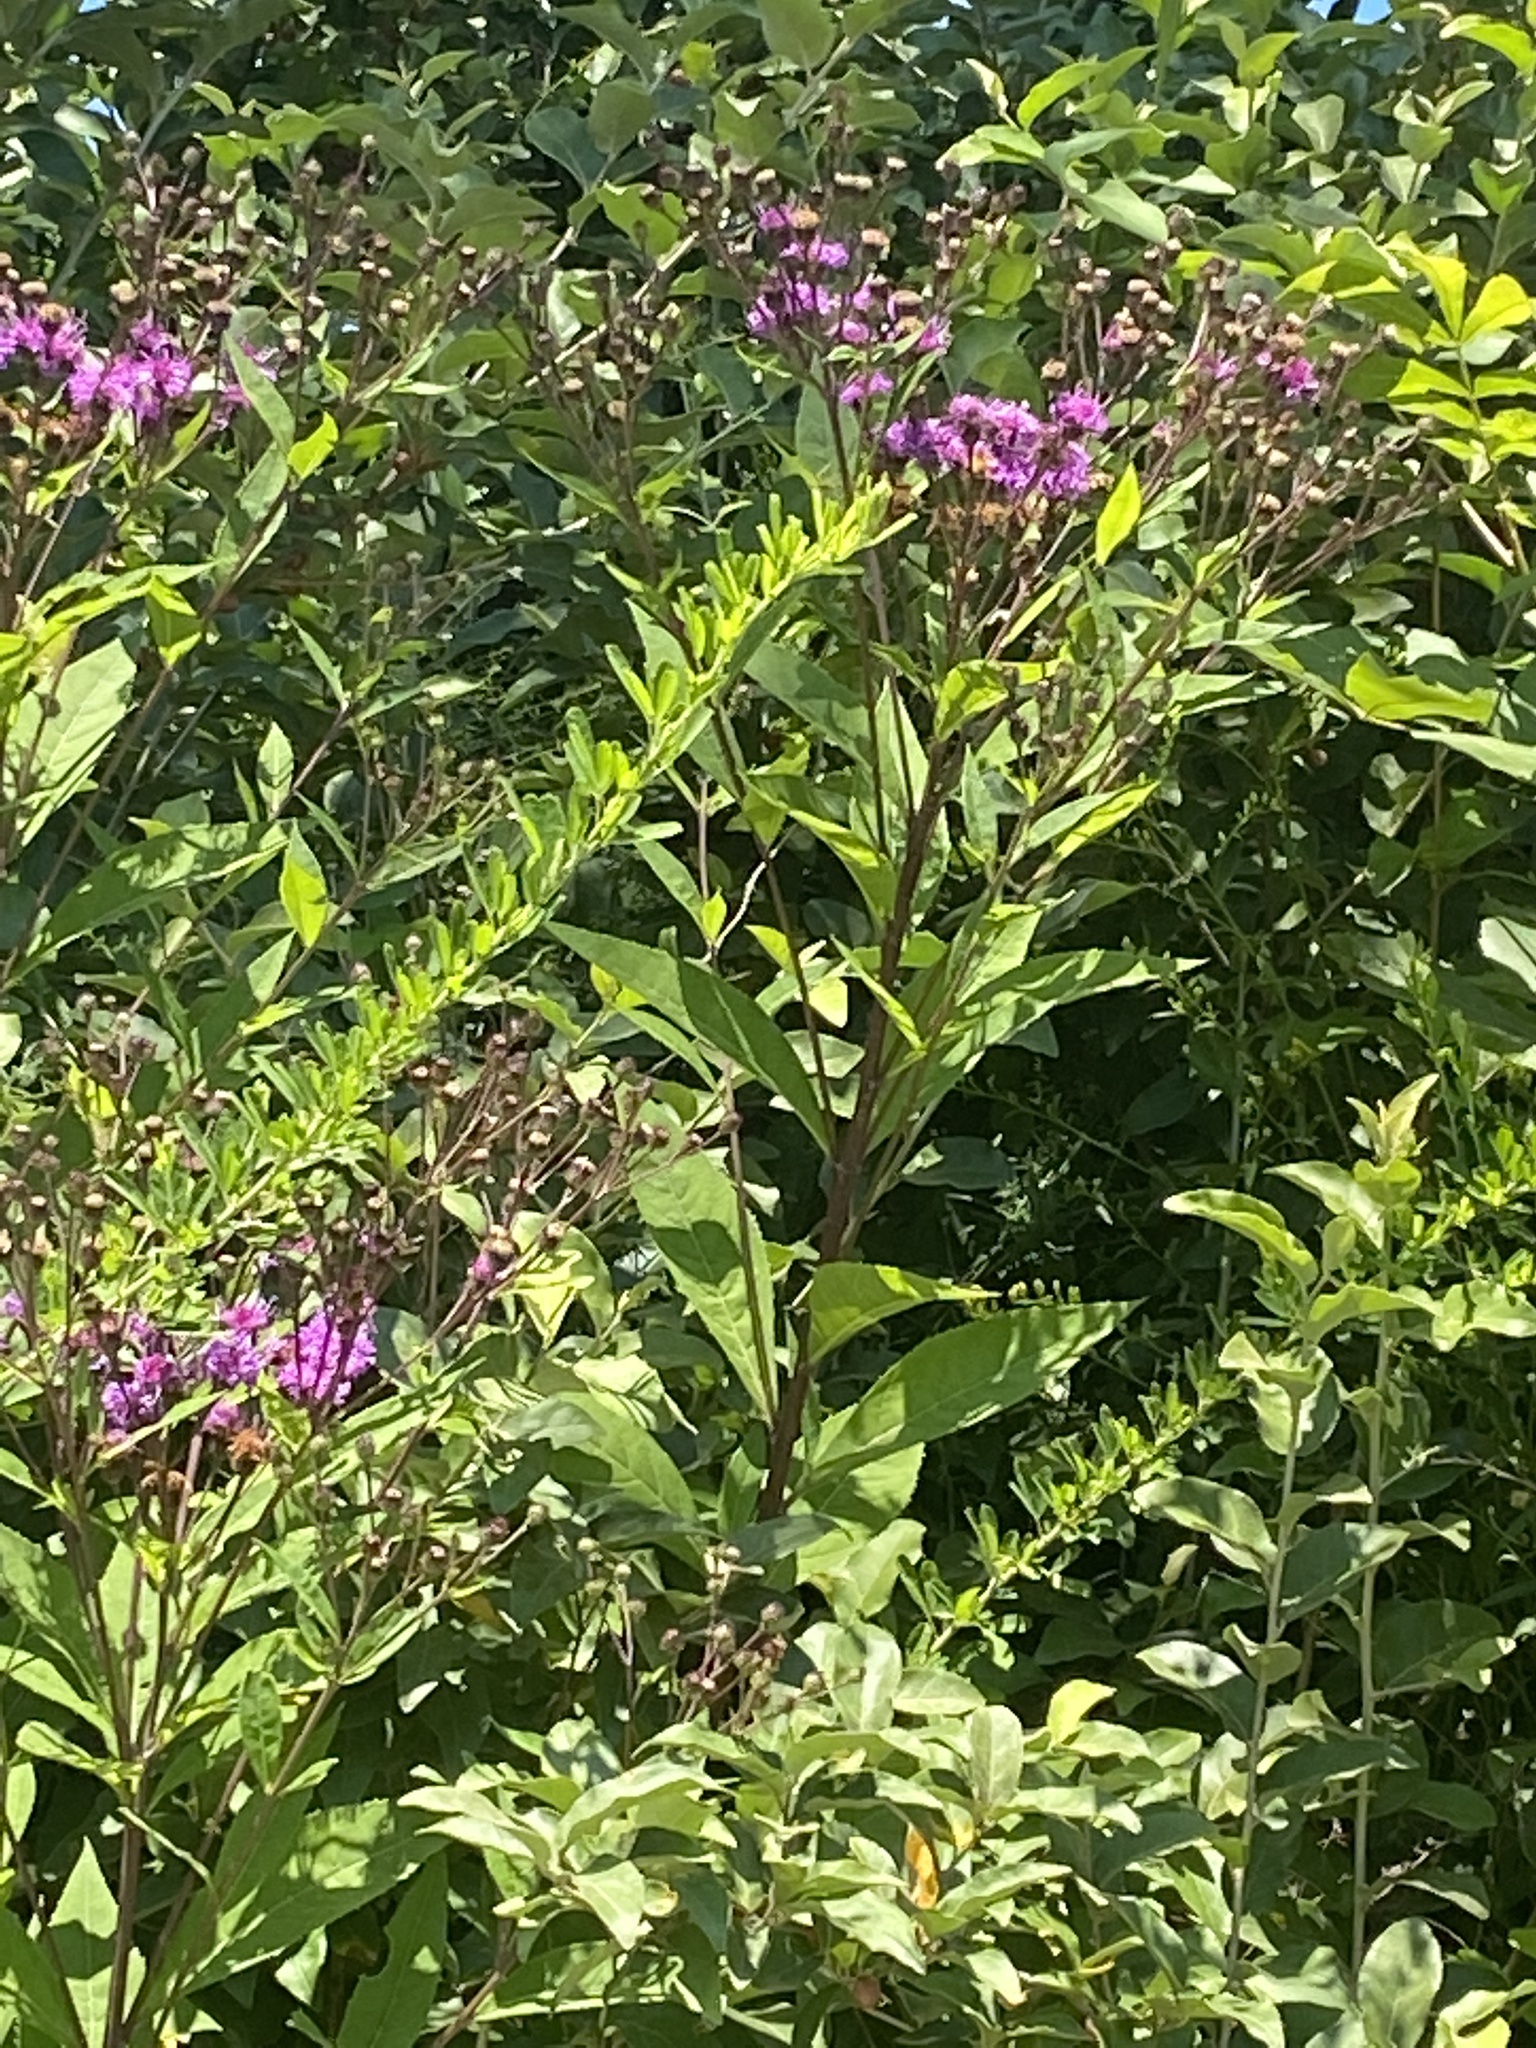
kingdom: Plantae
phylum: Tracheophyta
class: Magnoliopsida
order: Asterales
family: Asteraceae
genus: Vernonia
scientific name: Vernonia glauca
